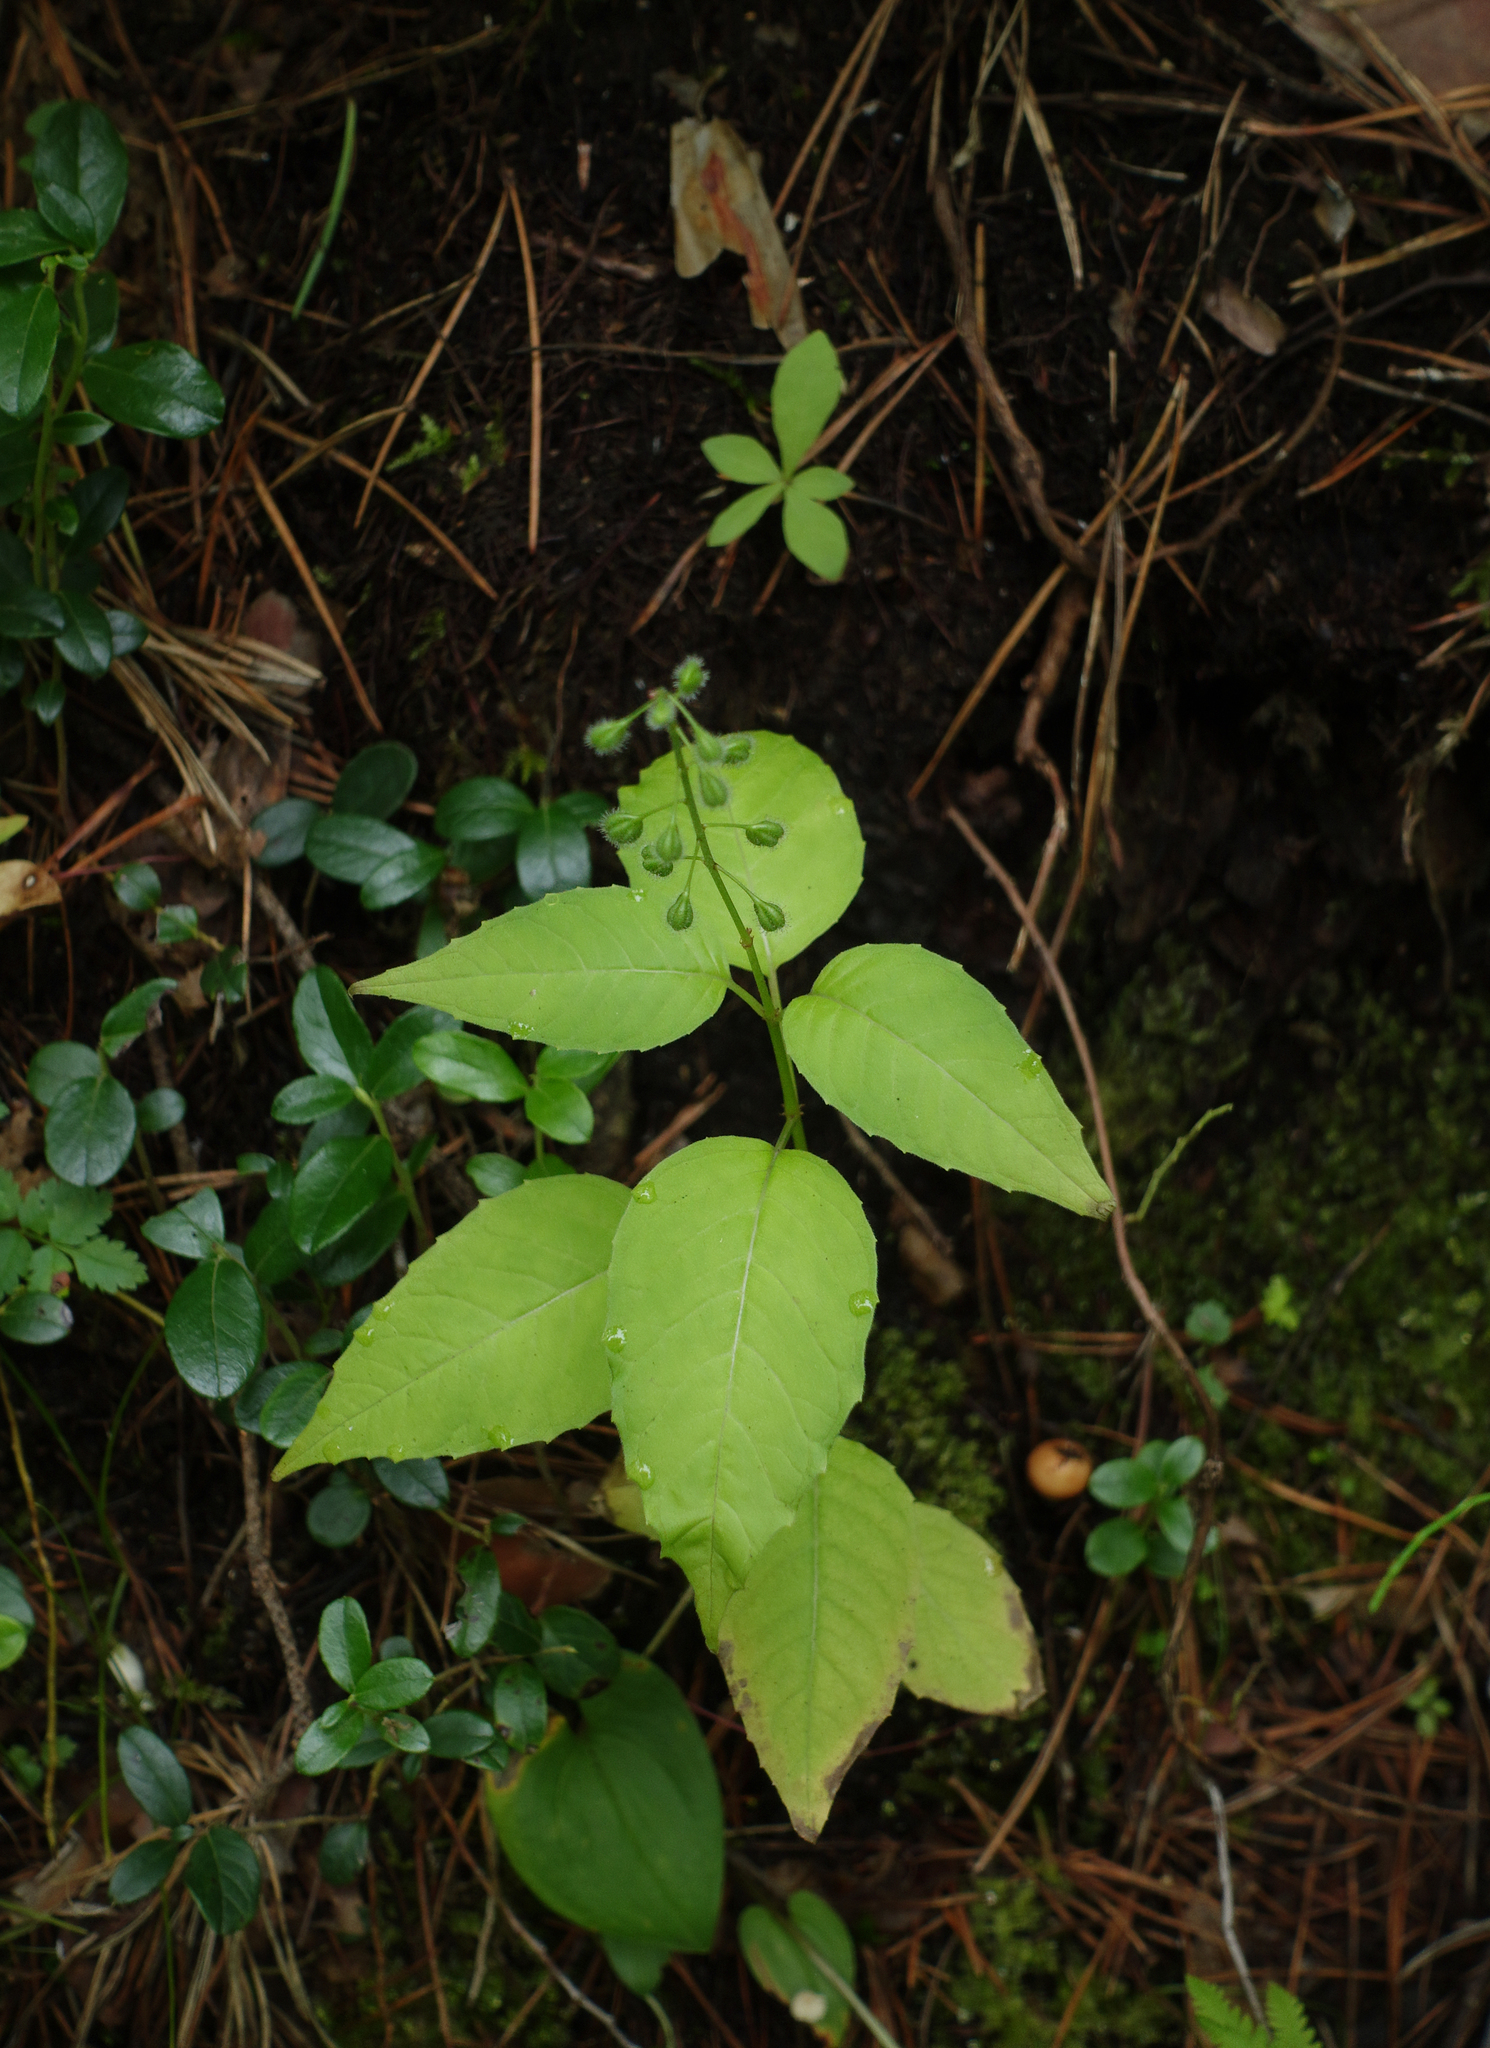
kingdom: Plantae
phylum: Tracheophyta
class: Magnoliopsida
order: Myrtales
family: Onagraceae
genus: Circaea
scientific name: Circaea lutetiana
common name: Enchanter's-nightshade
